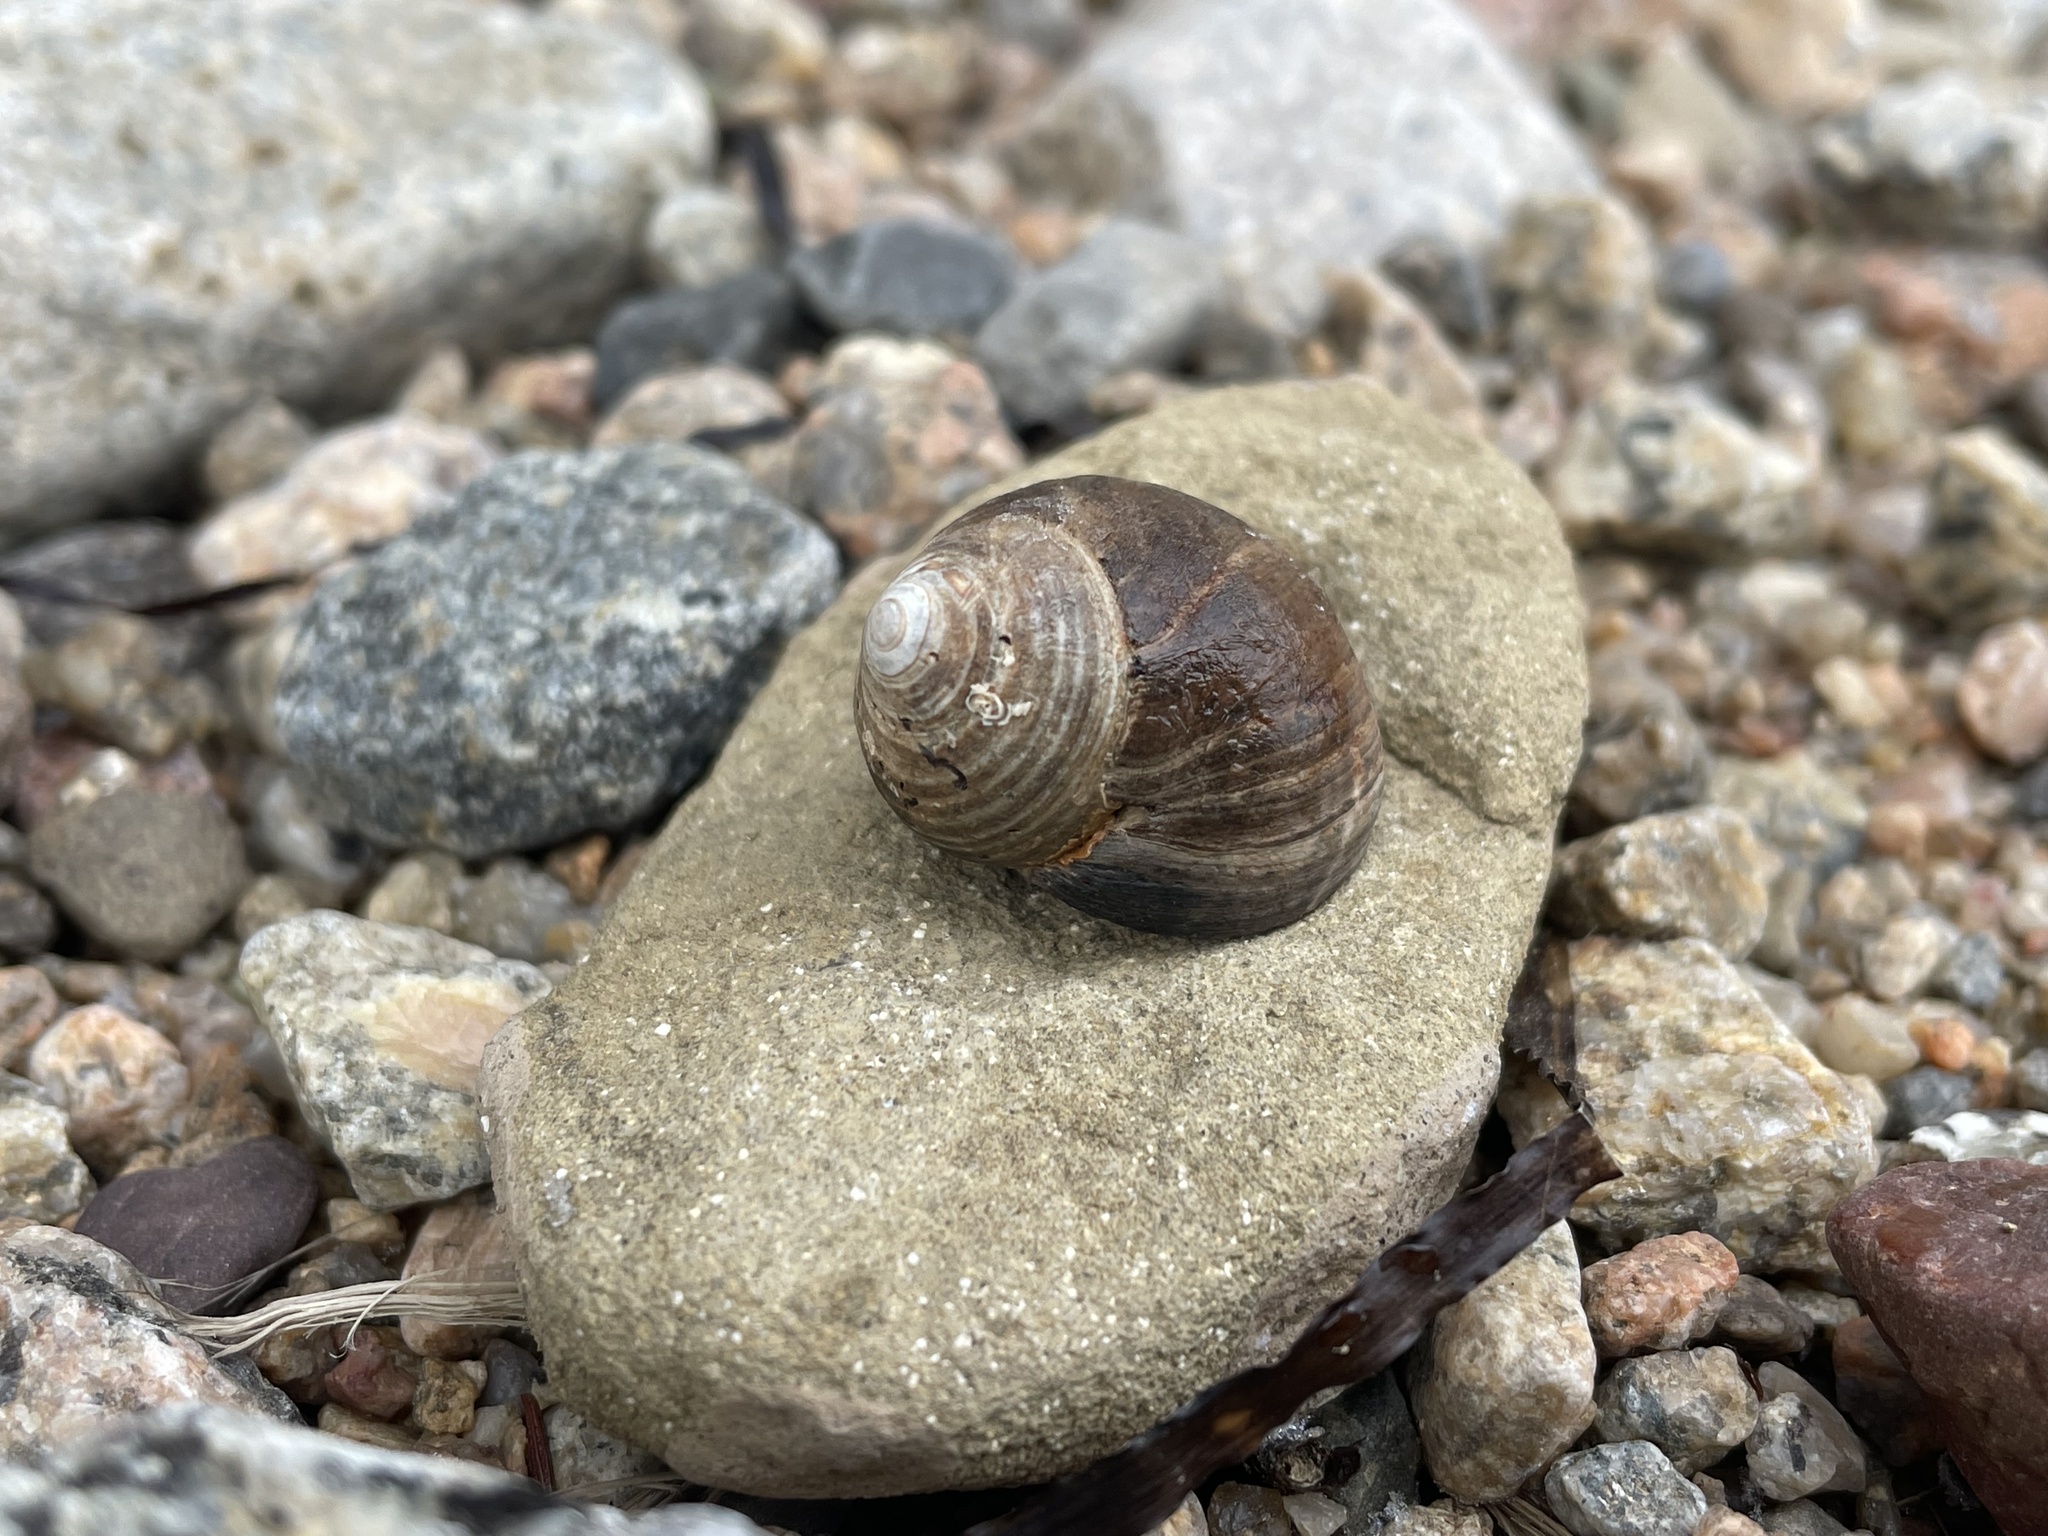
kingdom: Animalia
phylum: Mollusca
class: Gastropoda
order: Littorinimorpha
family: Littorinidae
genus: Littorina
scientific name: Littorina littorea
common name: Common periwinkle
